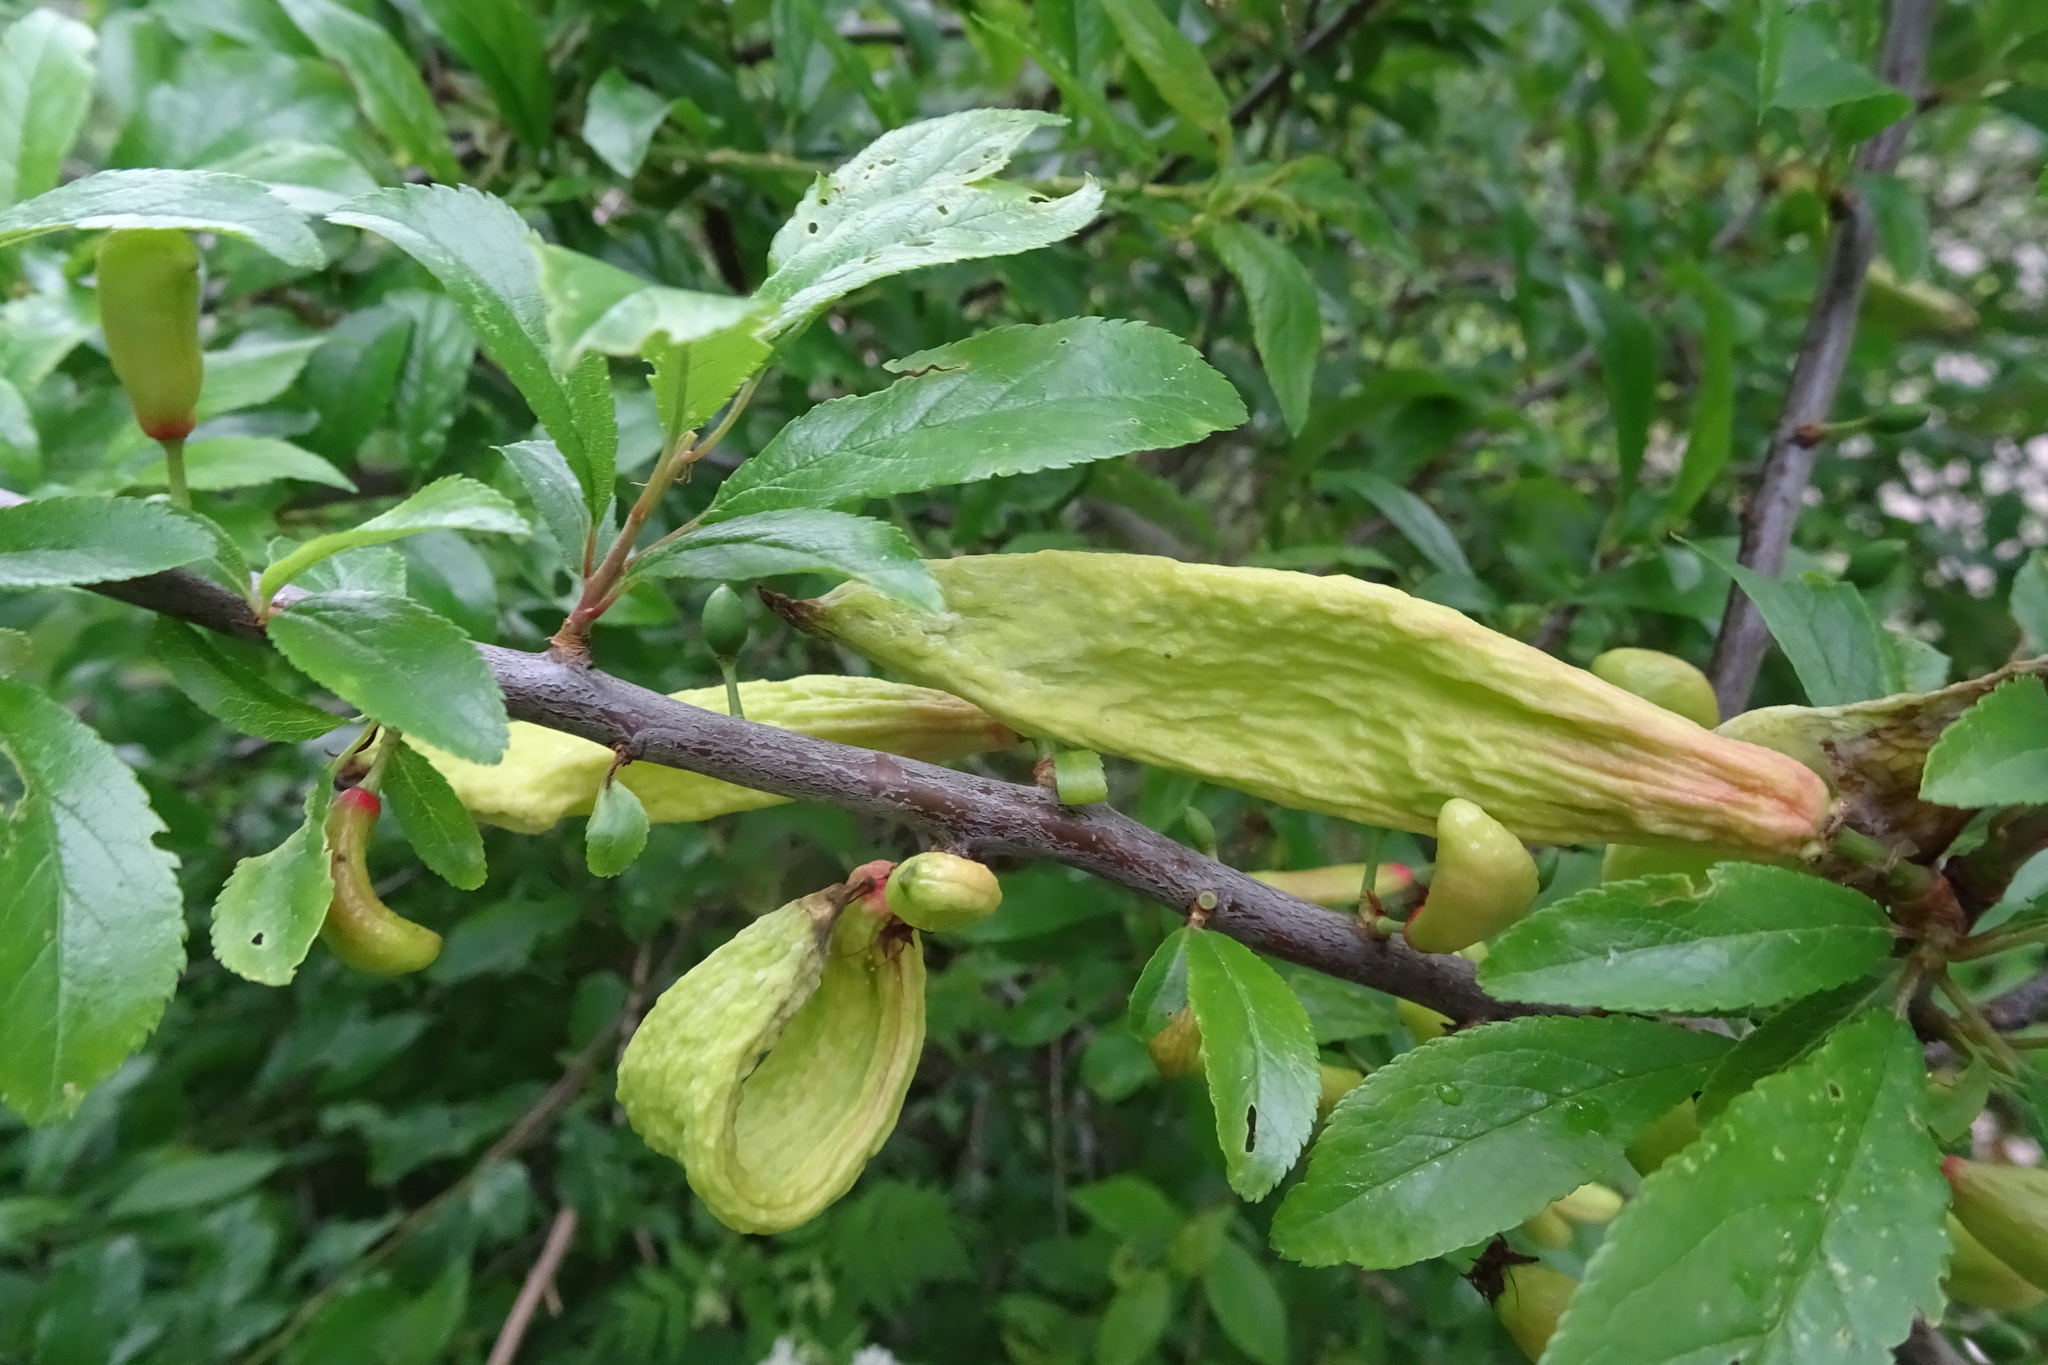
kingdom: Fungi
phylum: Ascomycota
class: Taphrinomycetes
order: Taphrinales
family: Taphrinaceae
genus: Taphrina
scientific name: Taphrina pruni
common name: Pocket plum
